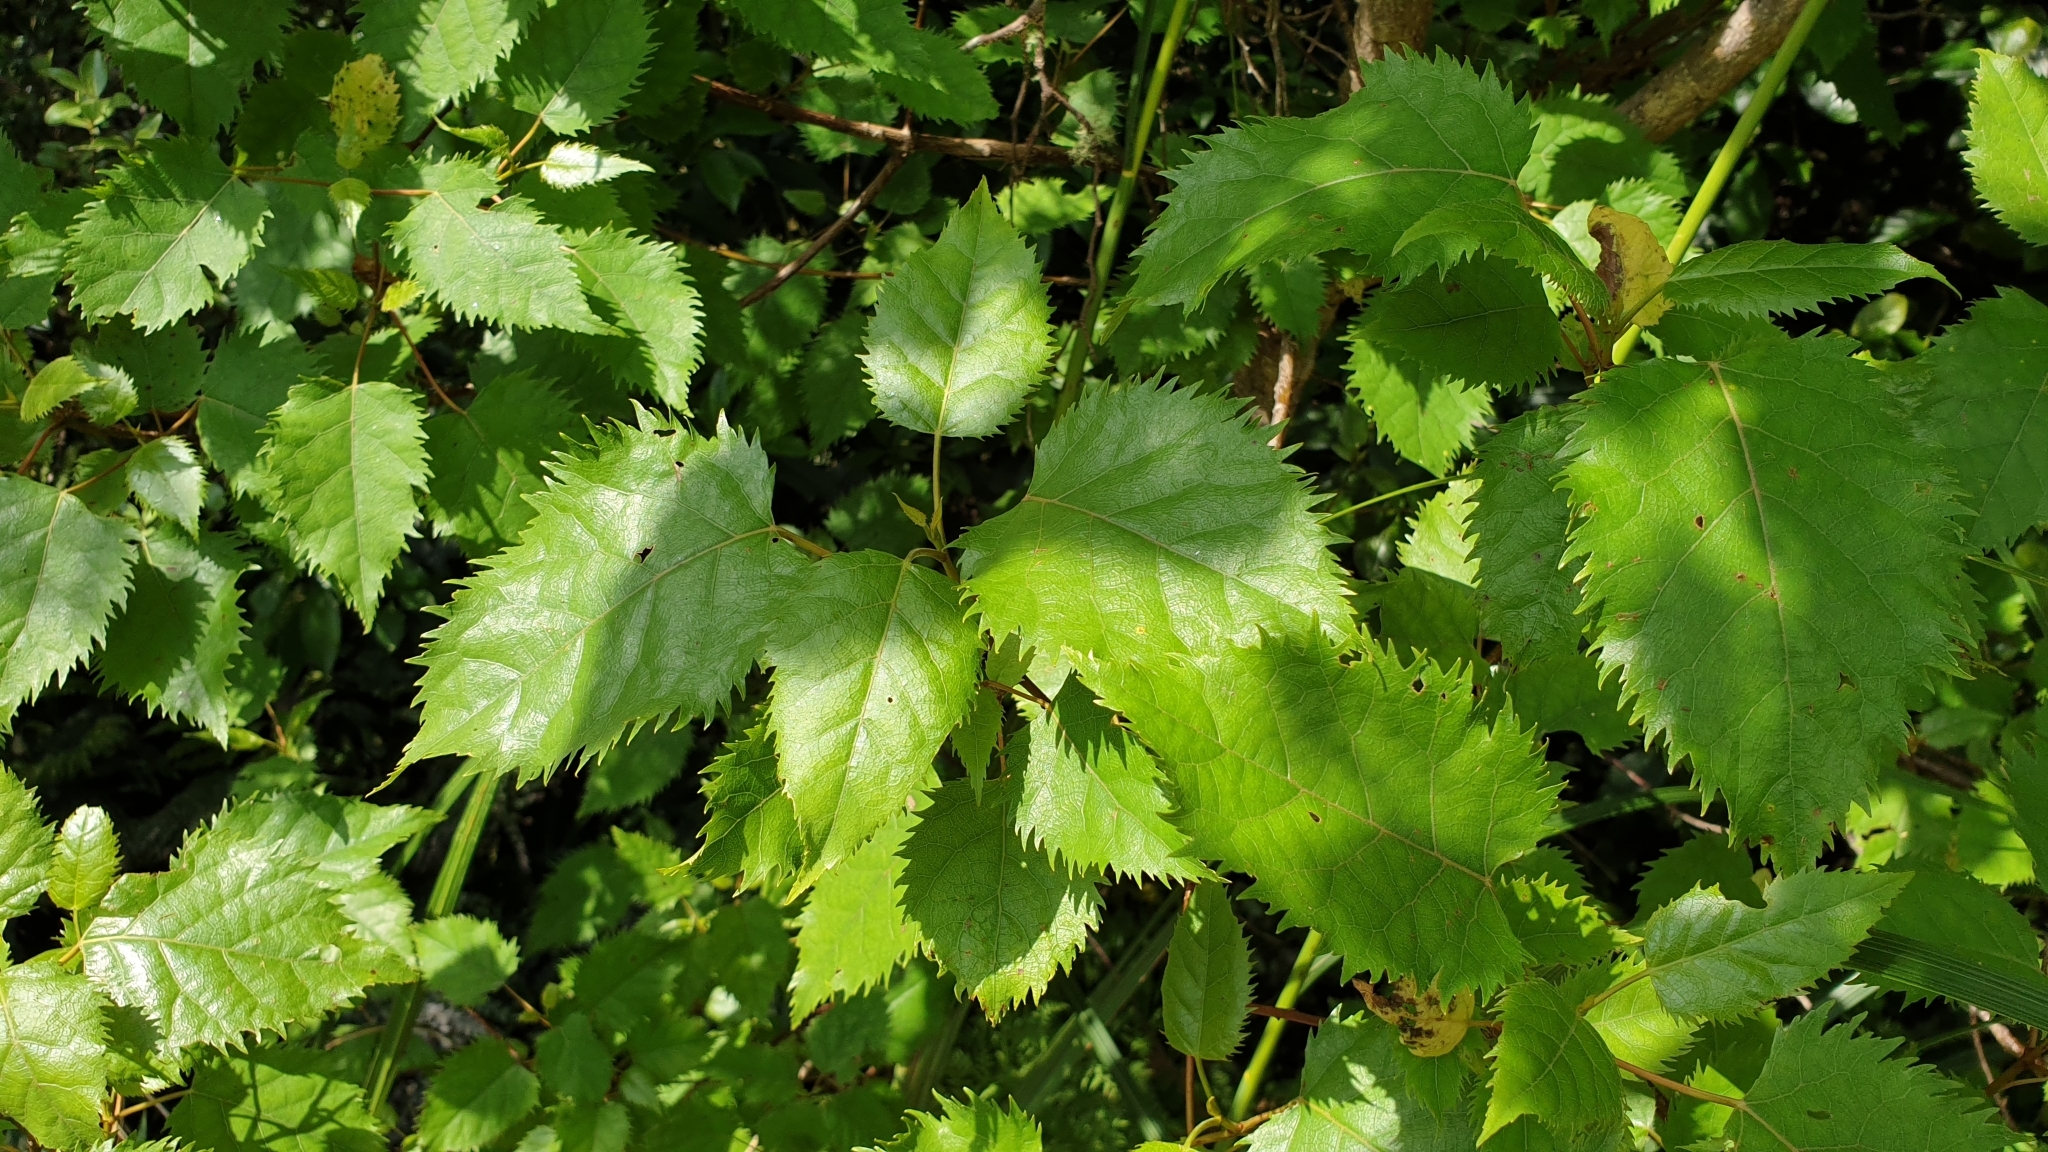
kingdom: Plantae
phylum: Tracheophyta
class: Magnoliopsida
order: Oxalidales
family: Elaeocarpaceae
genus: Aristotelia
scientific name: Aristotelia serrata
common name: New zealand wineberry
